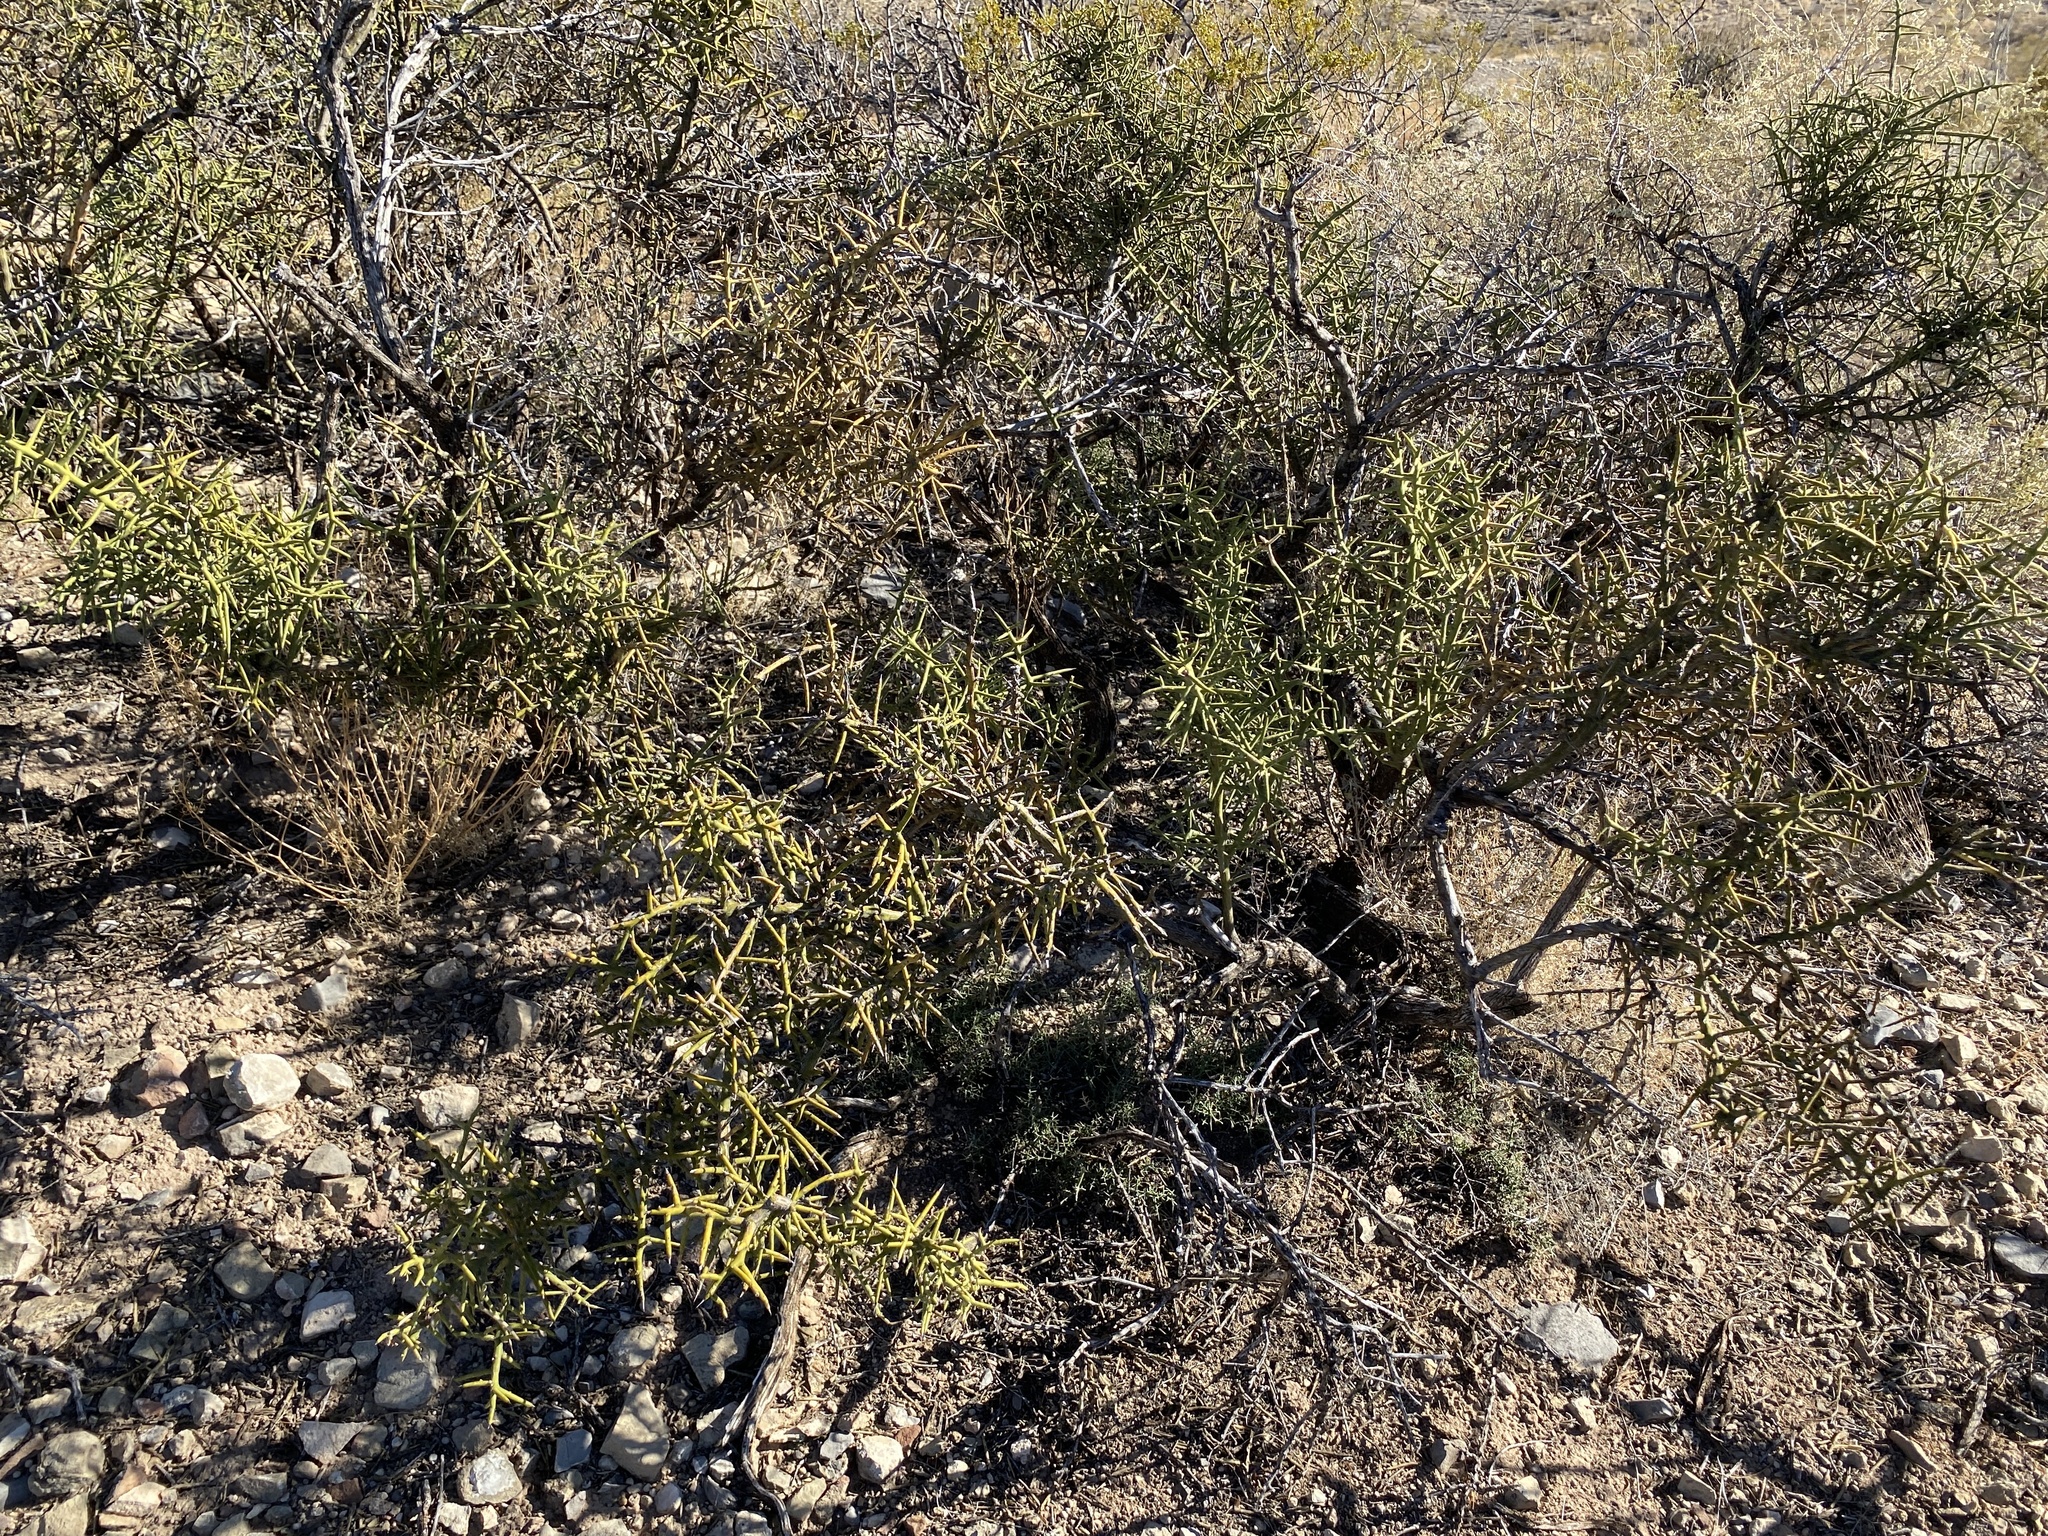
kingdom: Plantae
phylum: Tracheophyta
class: Magnoliopsida
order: Brassicales
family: Koeberliniaceae
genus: Koeberlinia
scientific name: Koeberlinia spinosa
